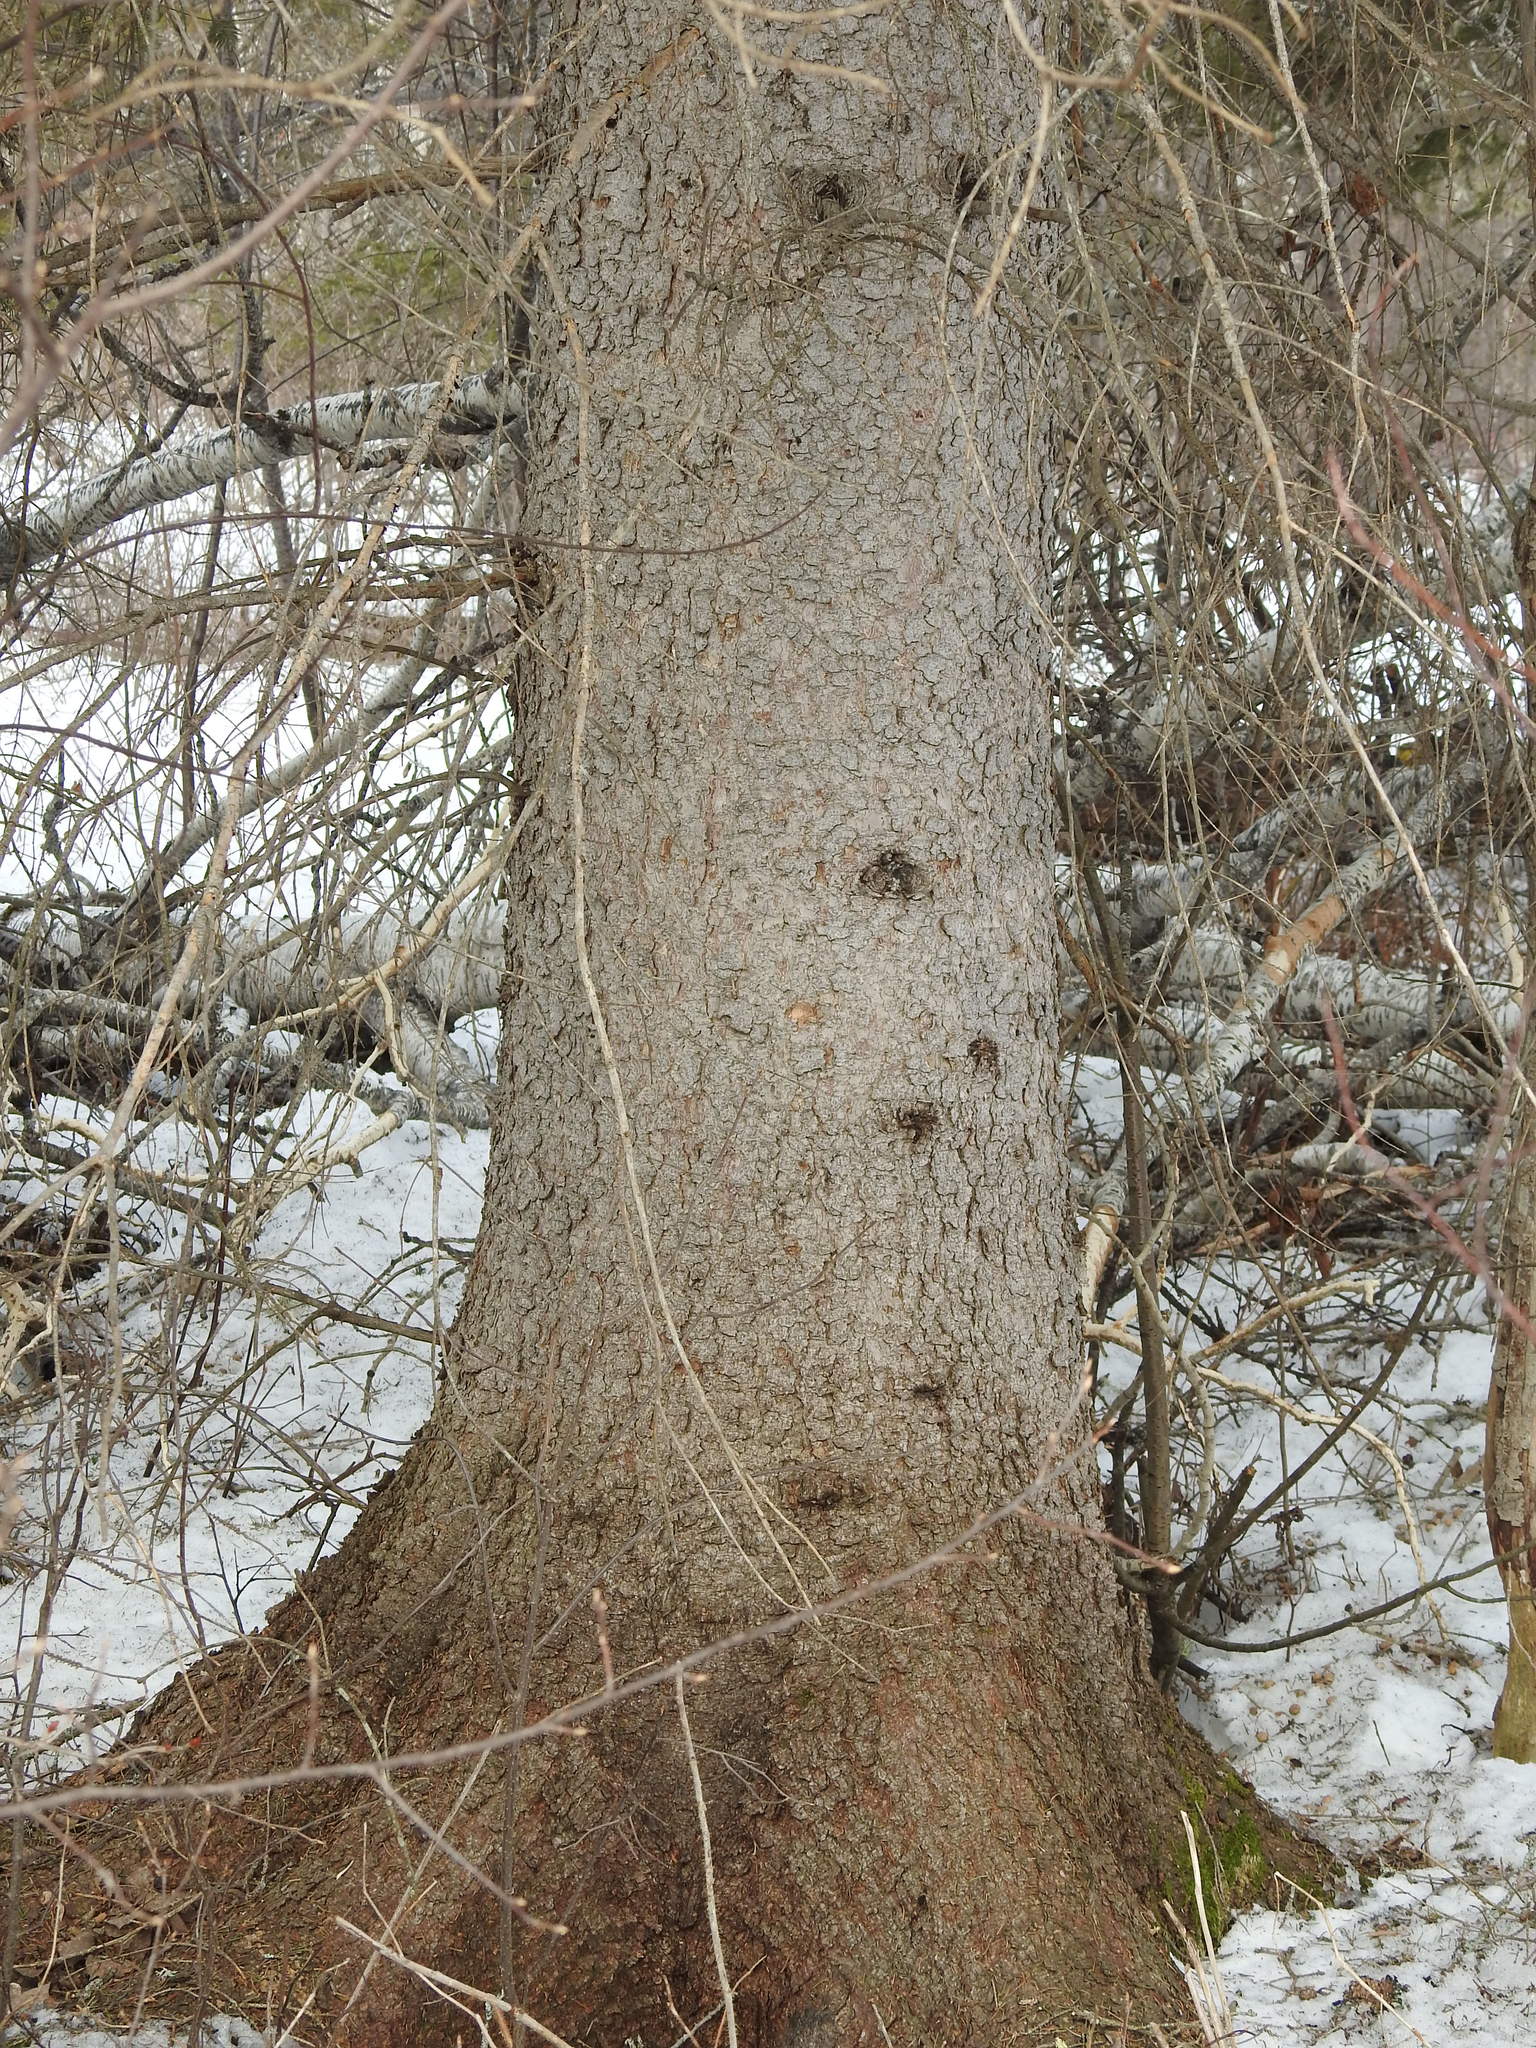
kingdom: Plantae
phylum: Tracheophyta
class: Pinopsida
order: Pinales
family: Pinaceae
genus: Picea
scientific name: Picea glauca
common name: White spruce
